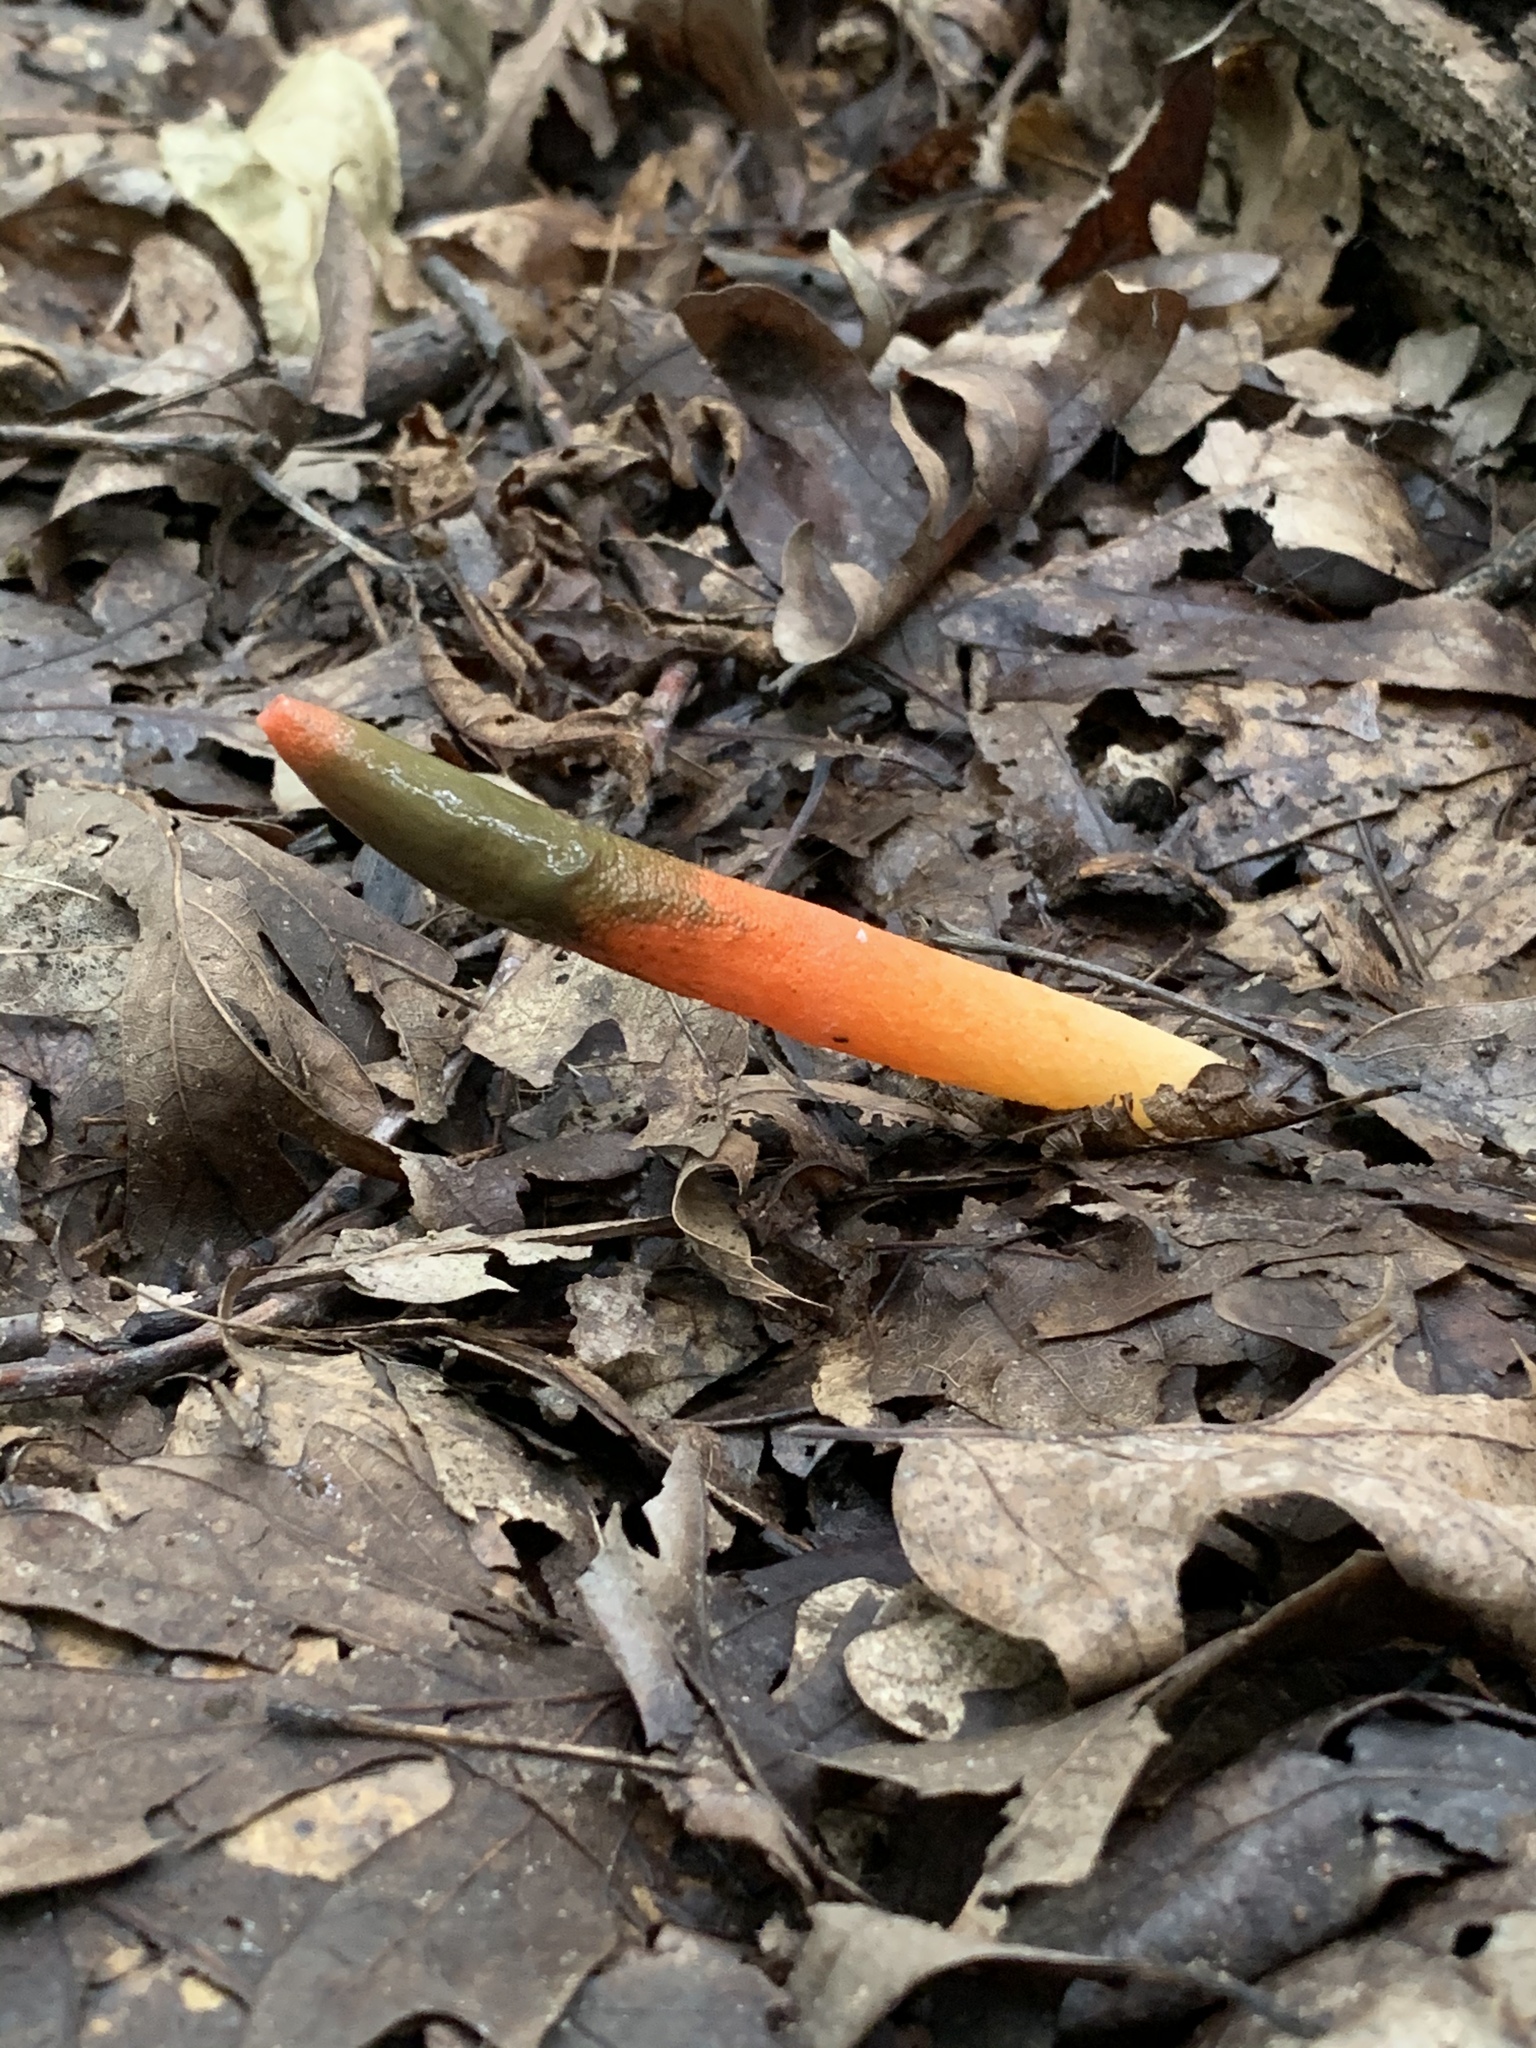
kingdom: Fungi
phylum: Basidiomycota
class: Agaricomycetes
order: Phallales
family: Phallaceae
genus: Mutinus
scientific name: Mutinus elegans
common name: Devil's dipstick
